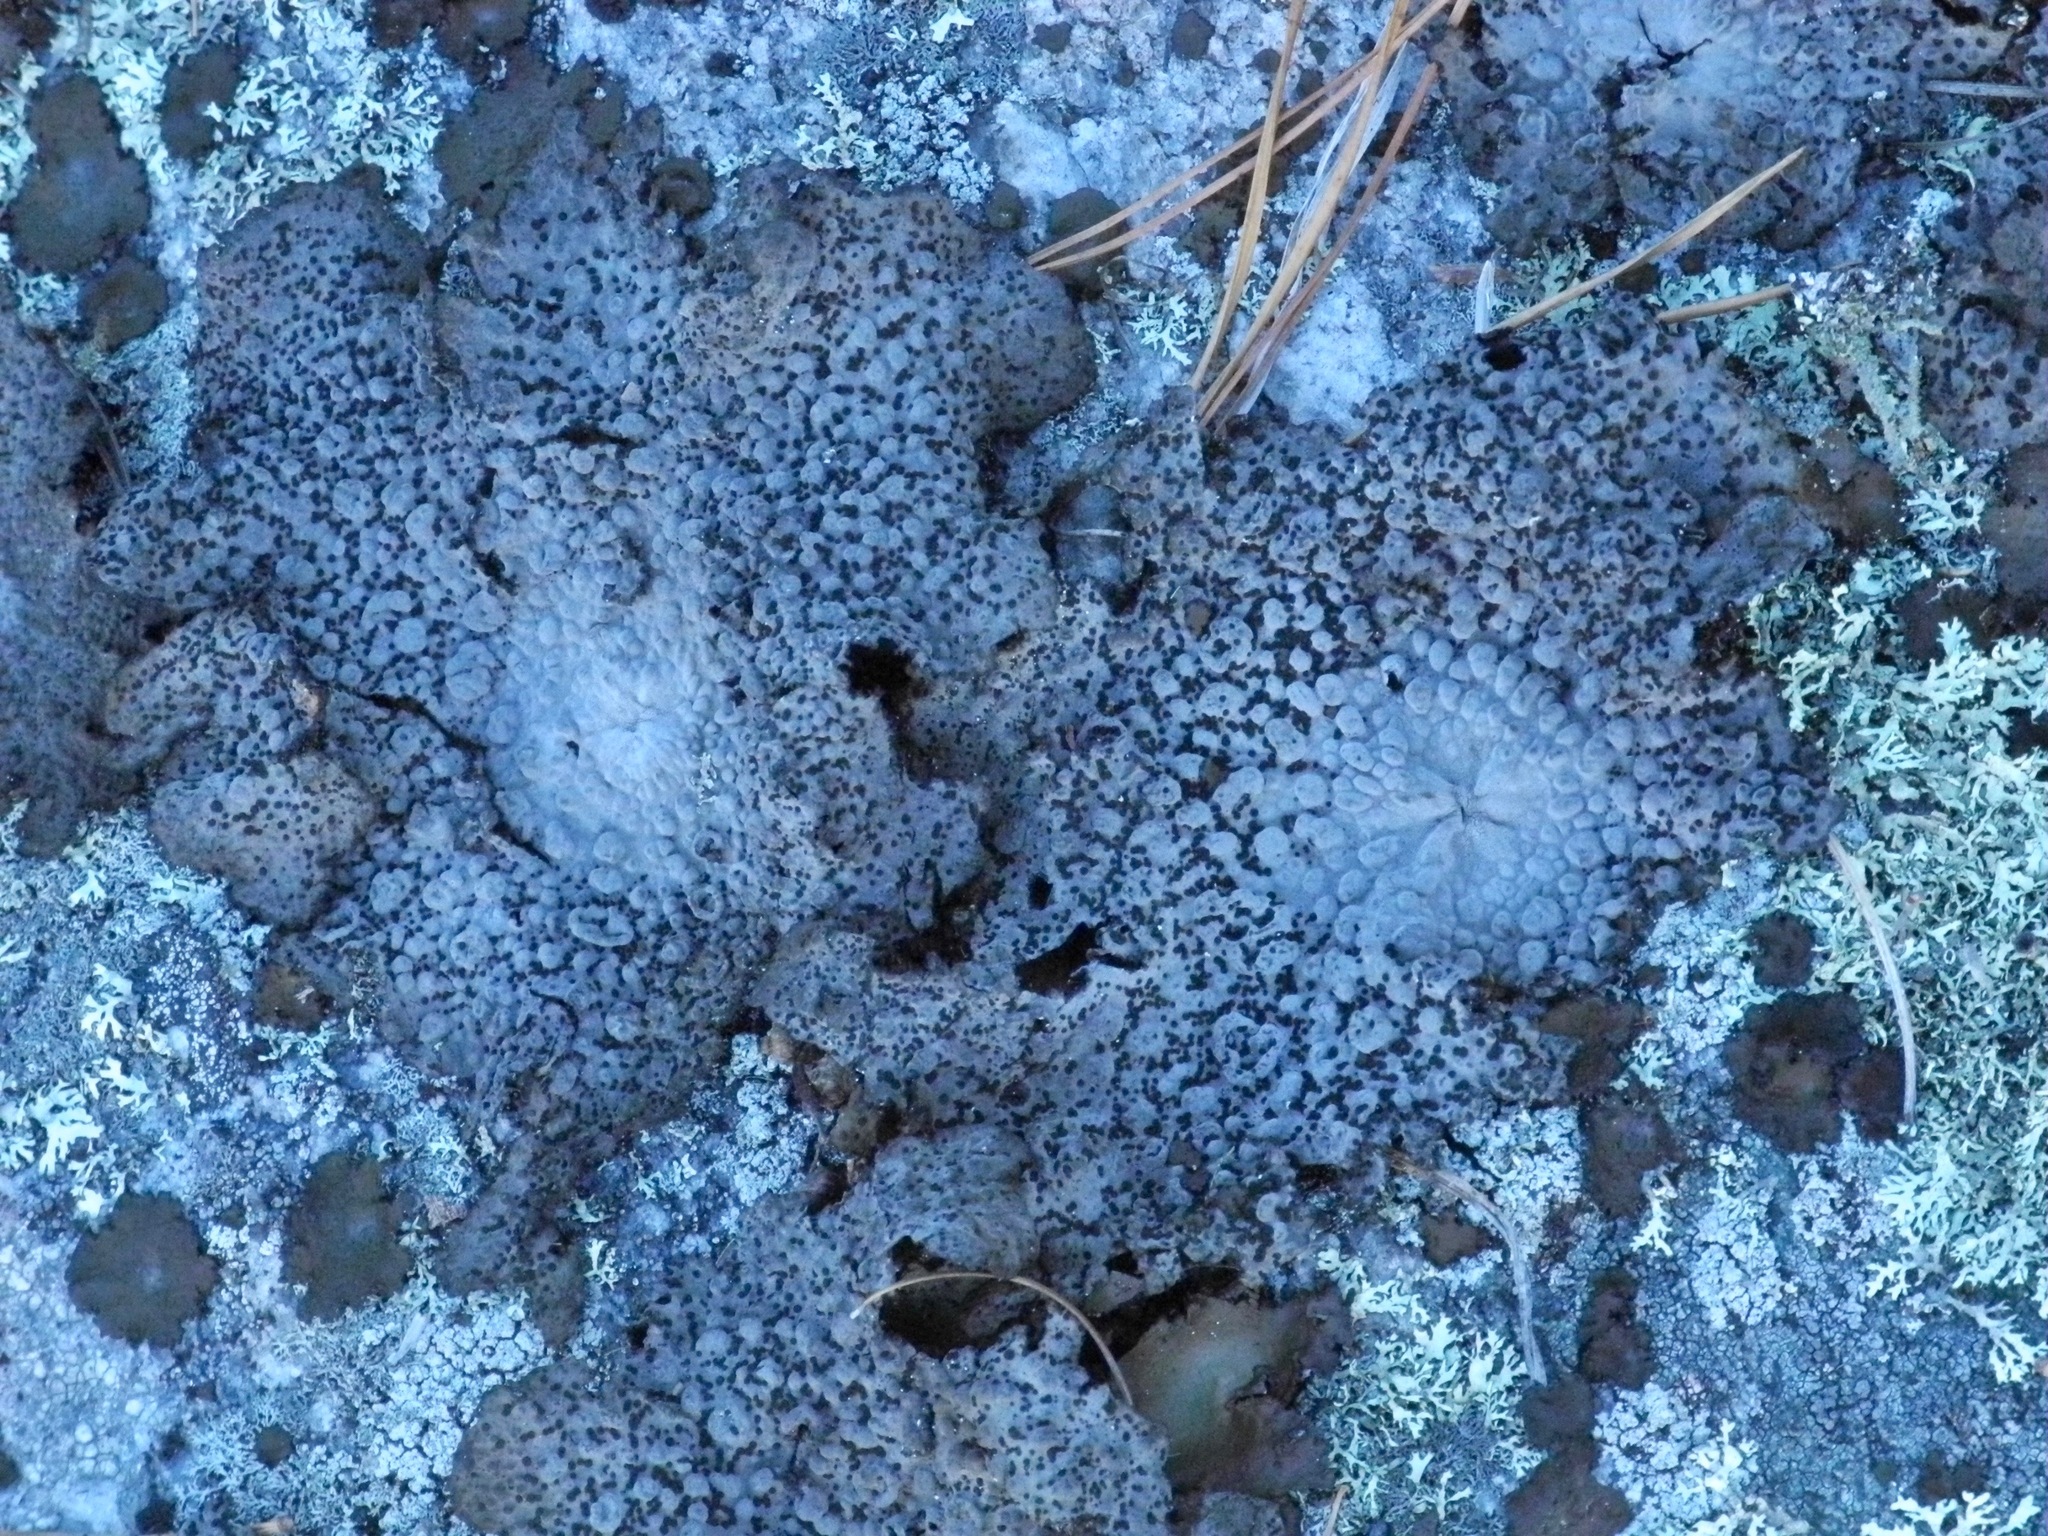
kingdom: Fungi
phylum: Ascomycota
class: Lecanoromycetes
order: Umbilicariales
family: Umbilicariaceae
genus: Lasallia
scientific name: Lasallia papulosa
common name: Common toadskin lichen
